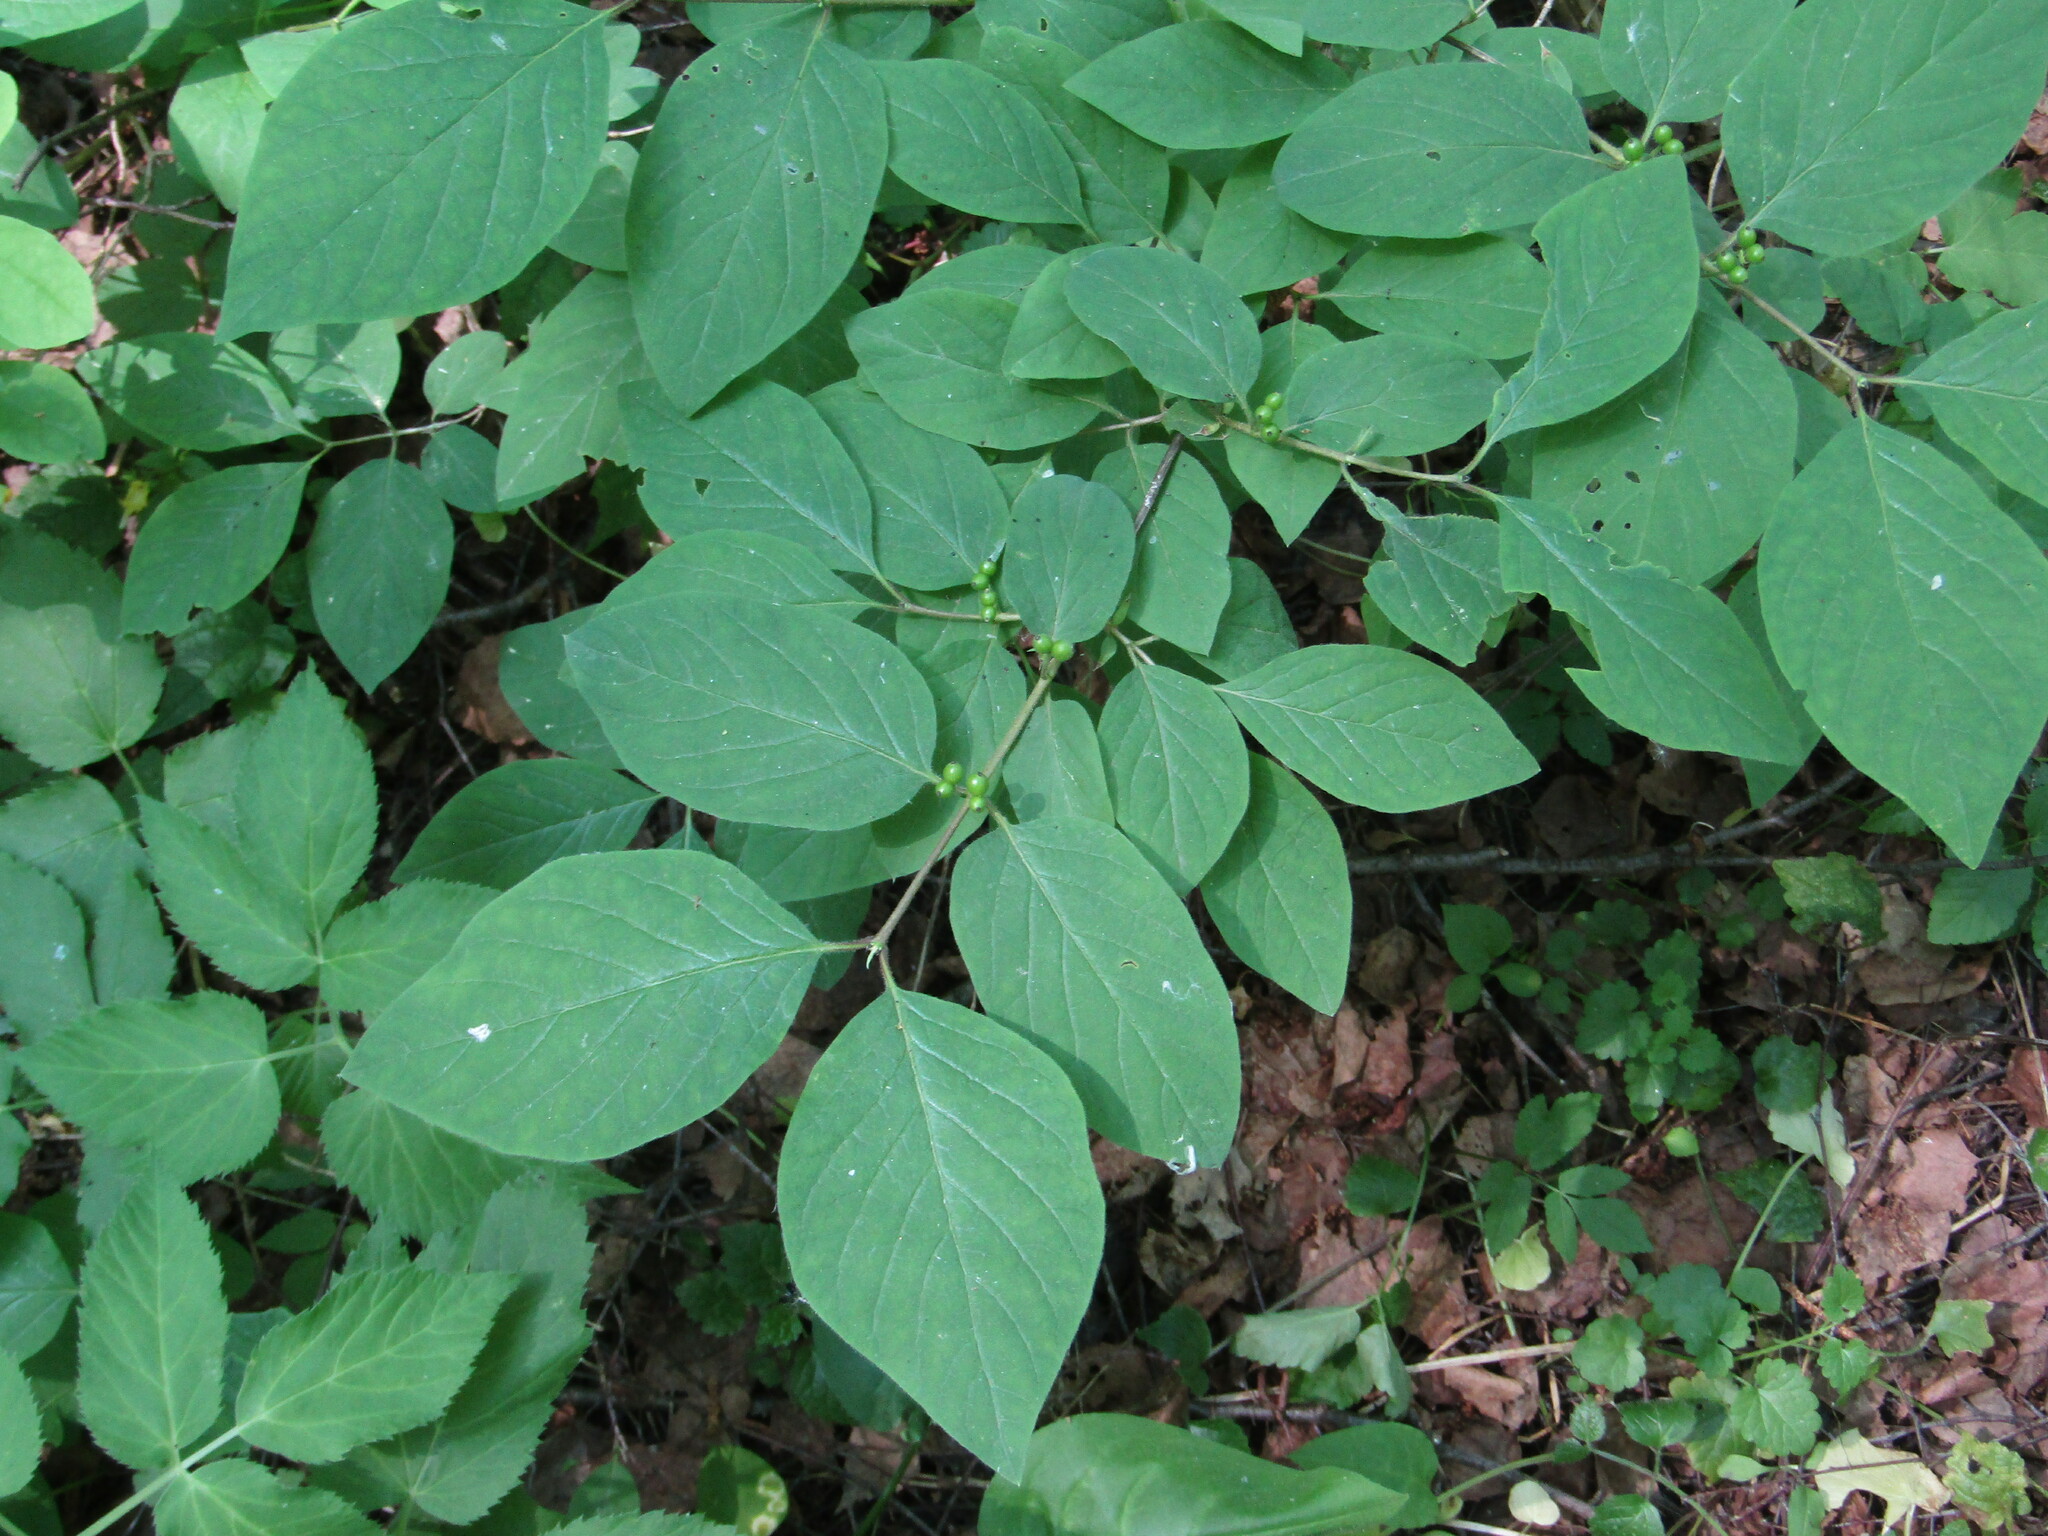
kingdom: Plantae
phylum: Tracheophyta
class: Magnoliopsida
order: Dipsacales
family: Caprifoliaceae
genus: Lonicera
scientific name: Lonicera xylosteum
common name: Fly honeysuckle
